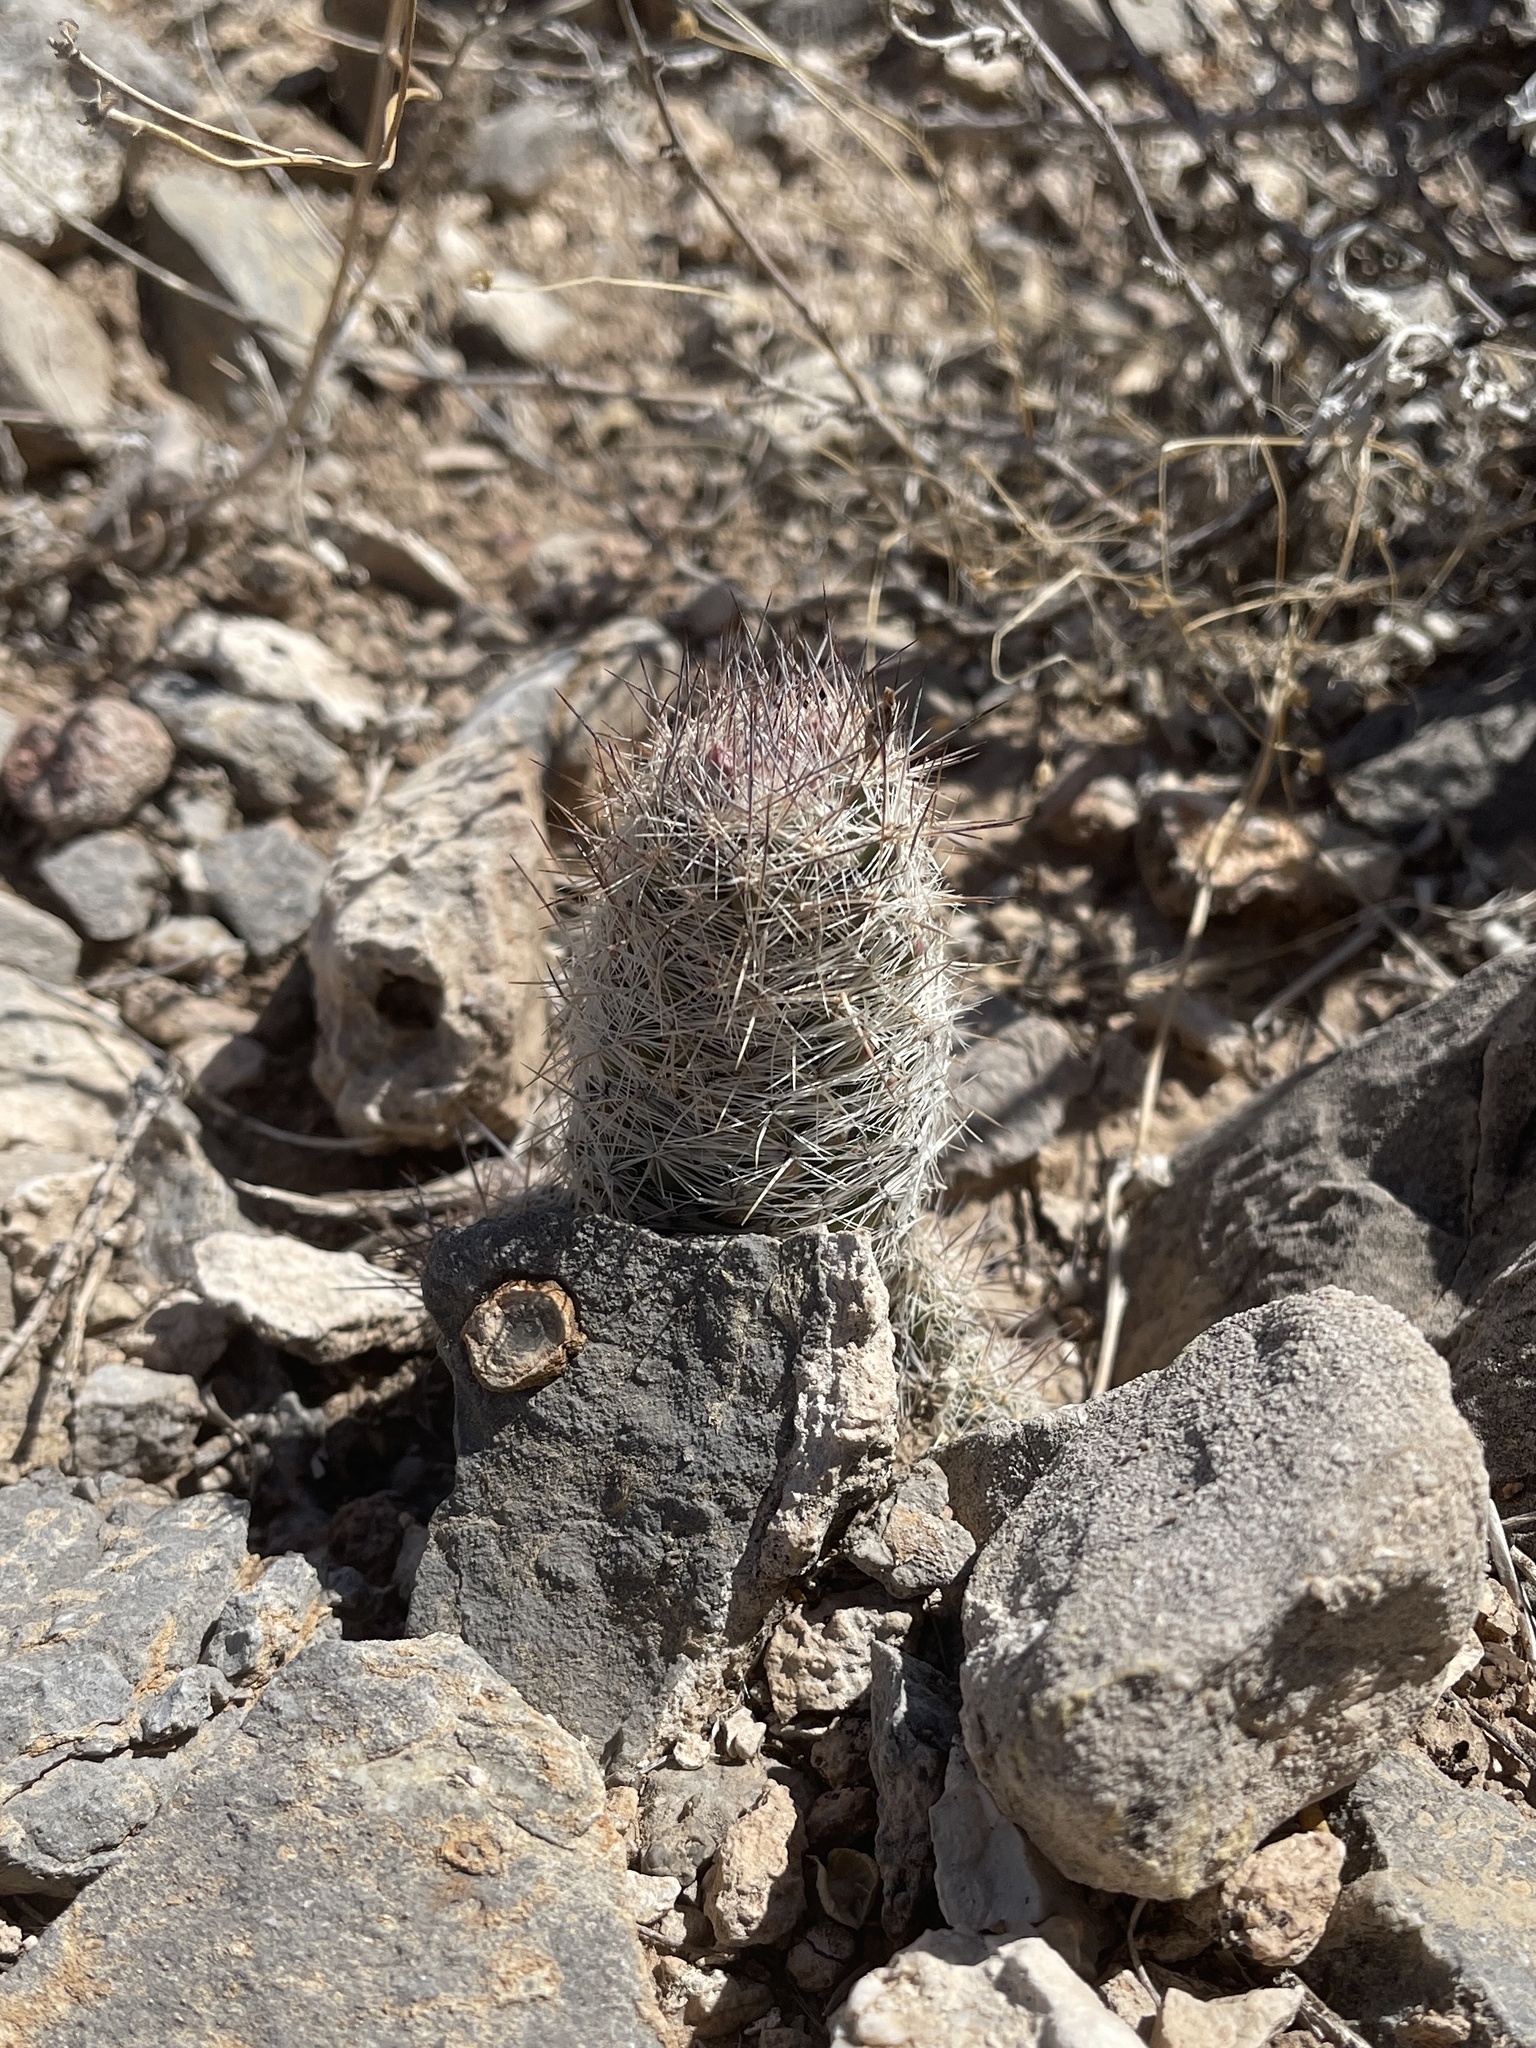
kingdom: Plantae
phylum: Tracheophyta
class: Magnoliopsida
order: Caryophyllales
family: Cactaceae
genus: Pelecyphora
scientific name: Pelecyphora tuberculosa
